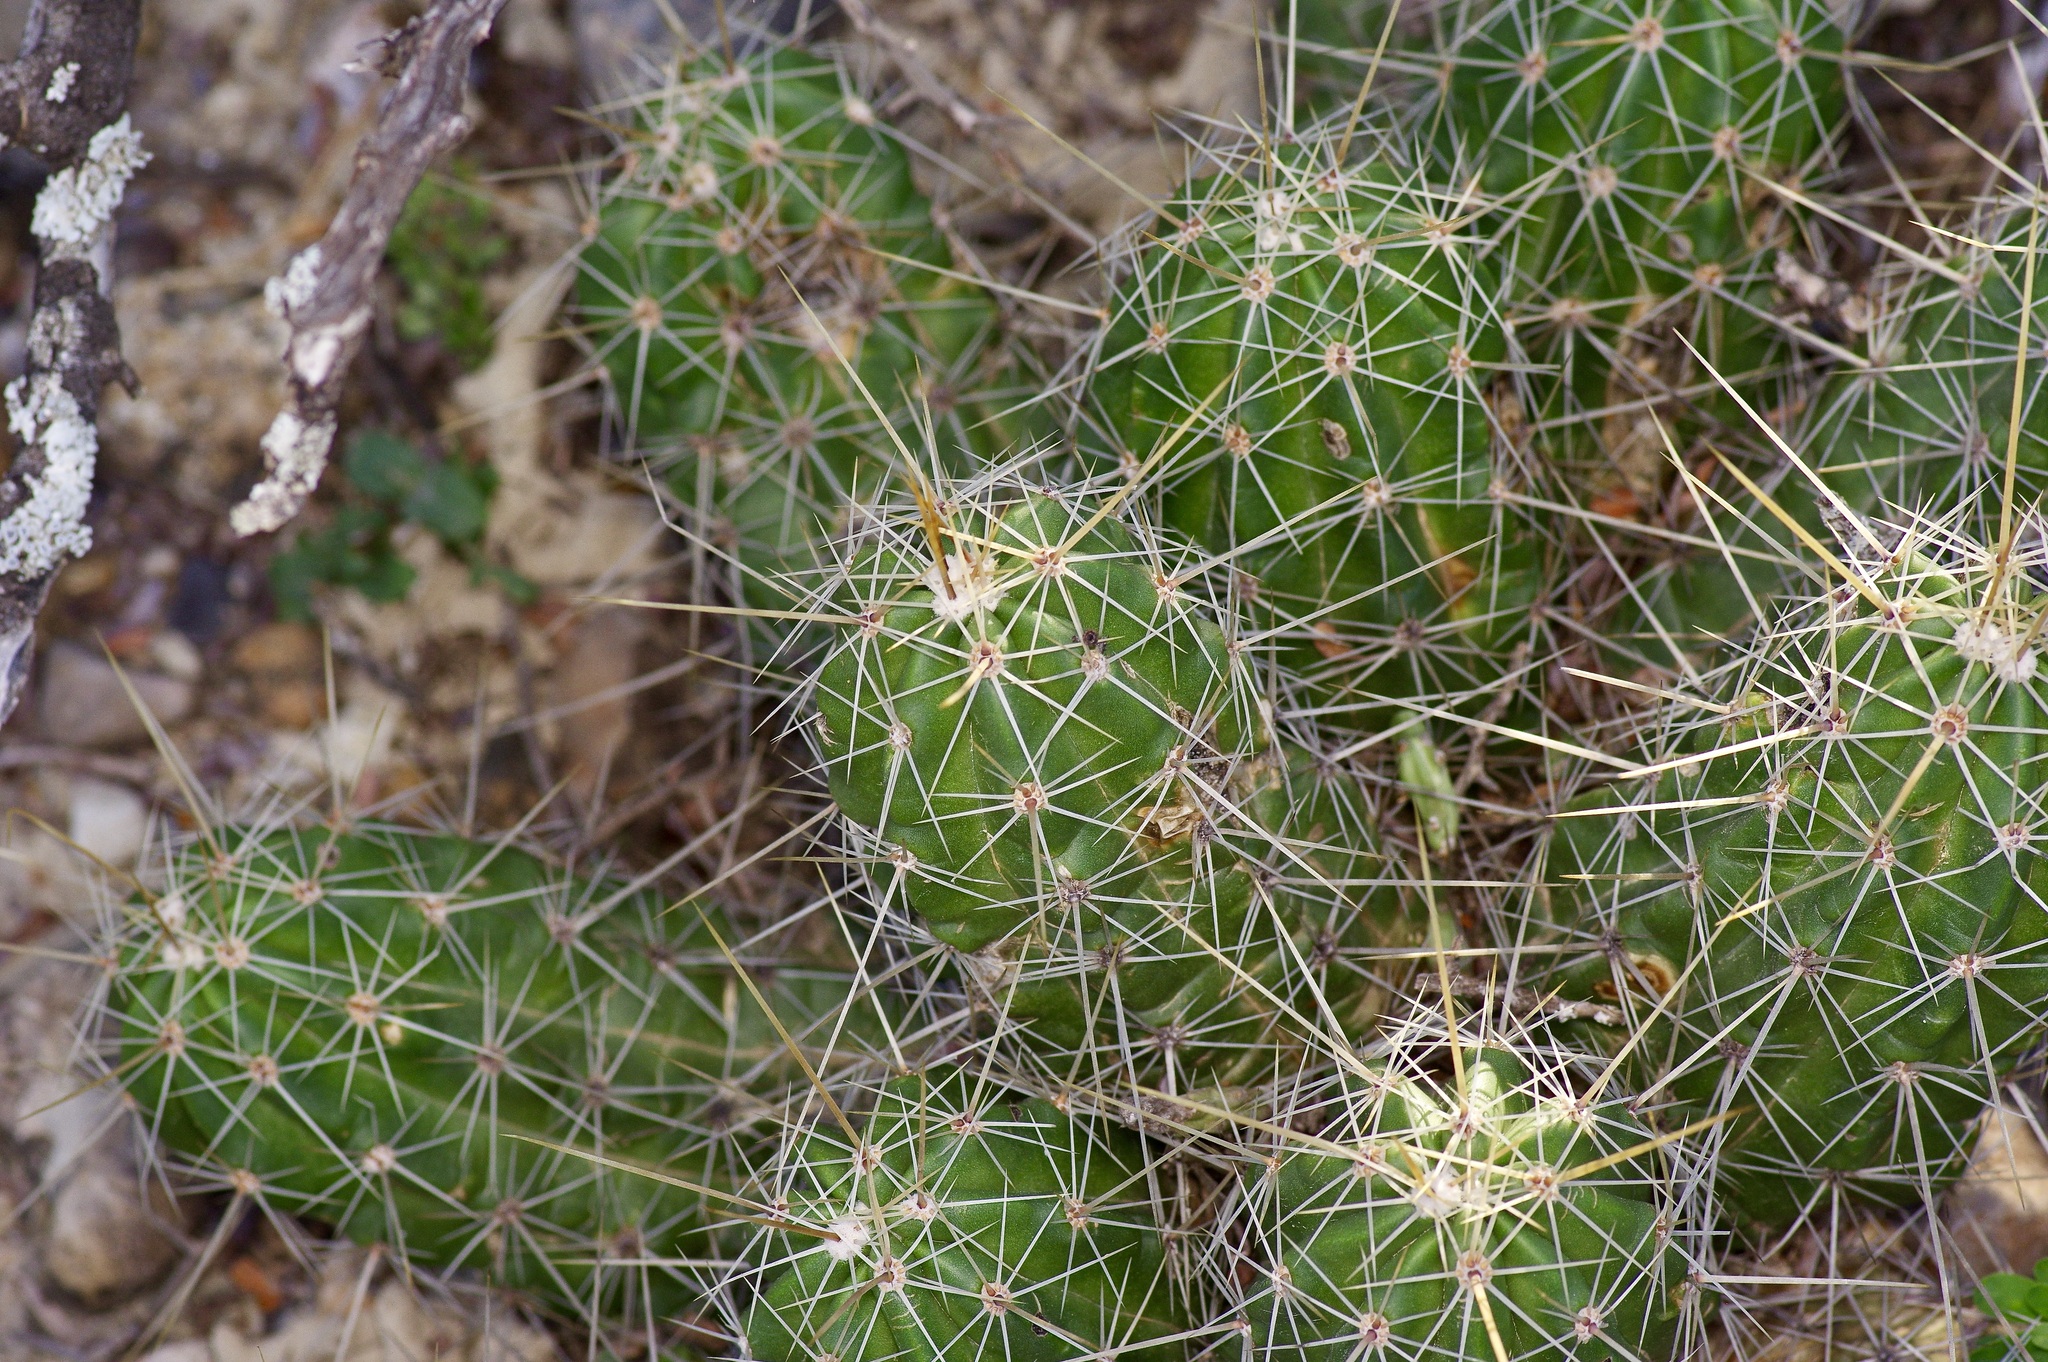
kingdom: Plantae
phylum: Tracheophyta
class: Magnoliopsida
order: Caryophyllales
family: Cactaceae
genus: Echinocereus
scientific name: Echinocereus enneacanthus
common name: Pitaya
